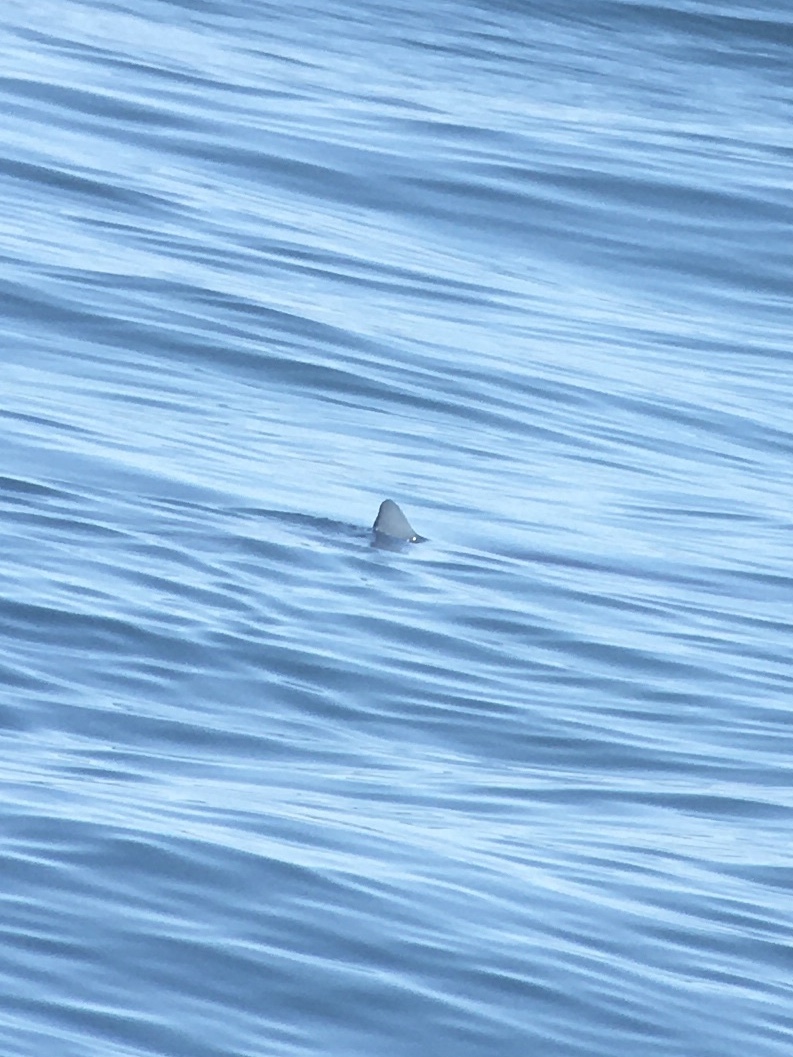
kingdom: Animalia
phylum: Chordata
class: Elasmobranchii
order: Carcharhiniformes
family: Carcharhinidae
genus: Prionace
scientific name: Prionace glauca
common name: Blue shark
